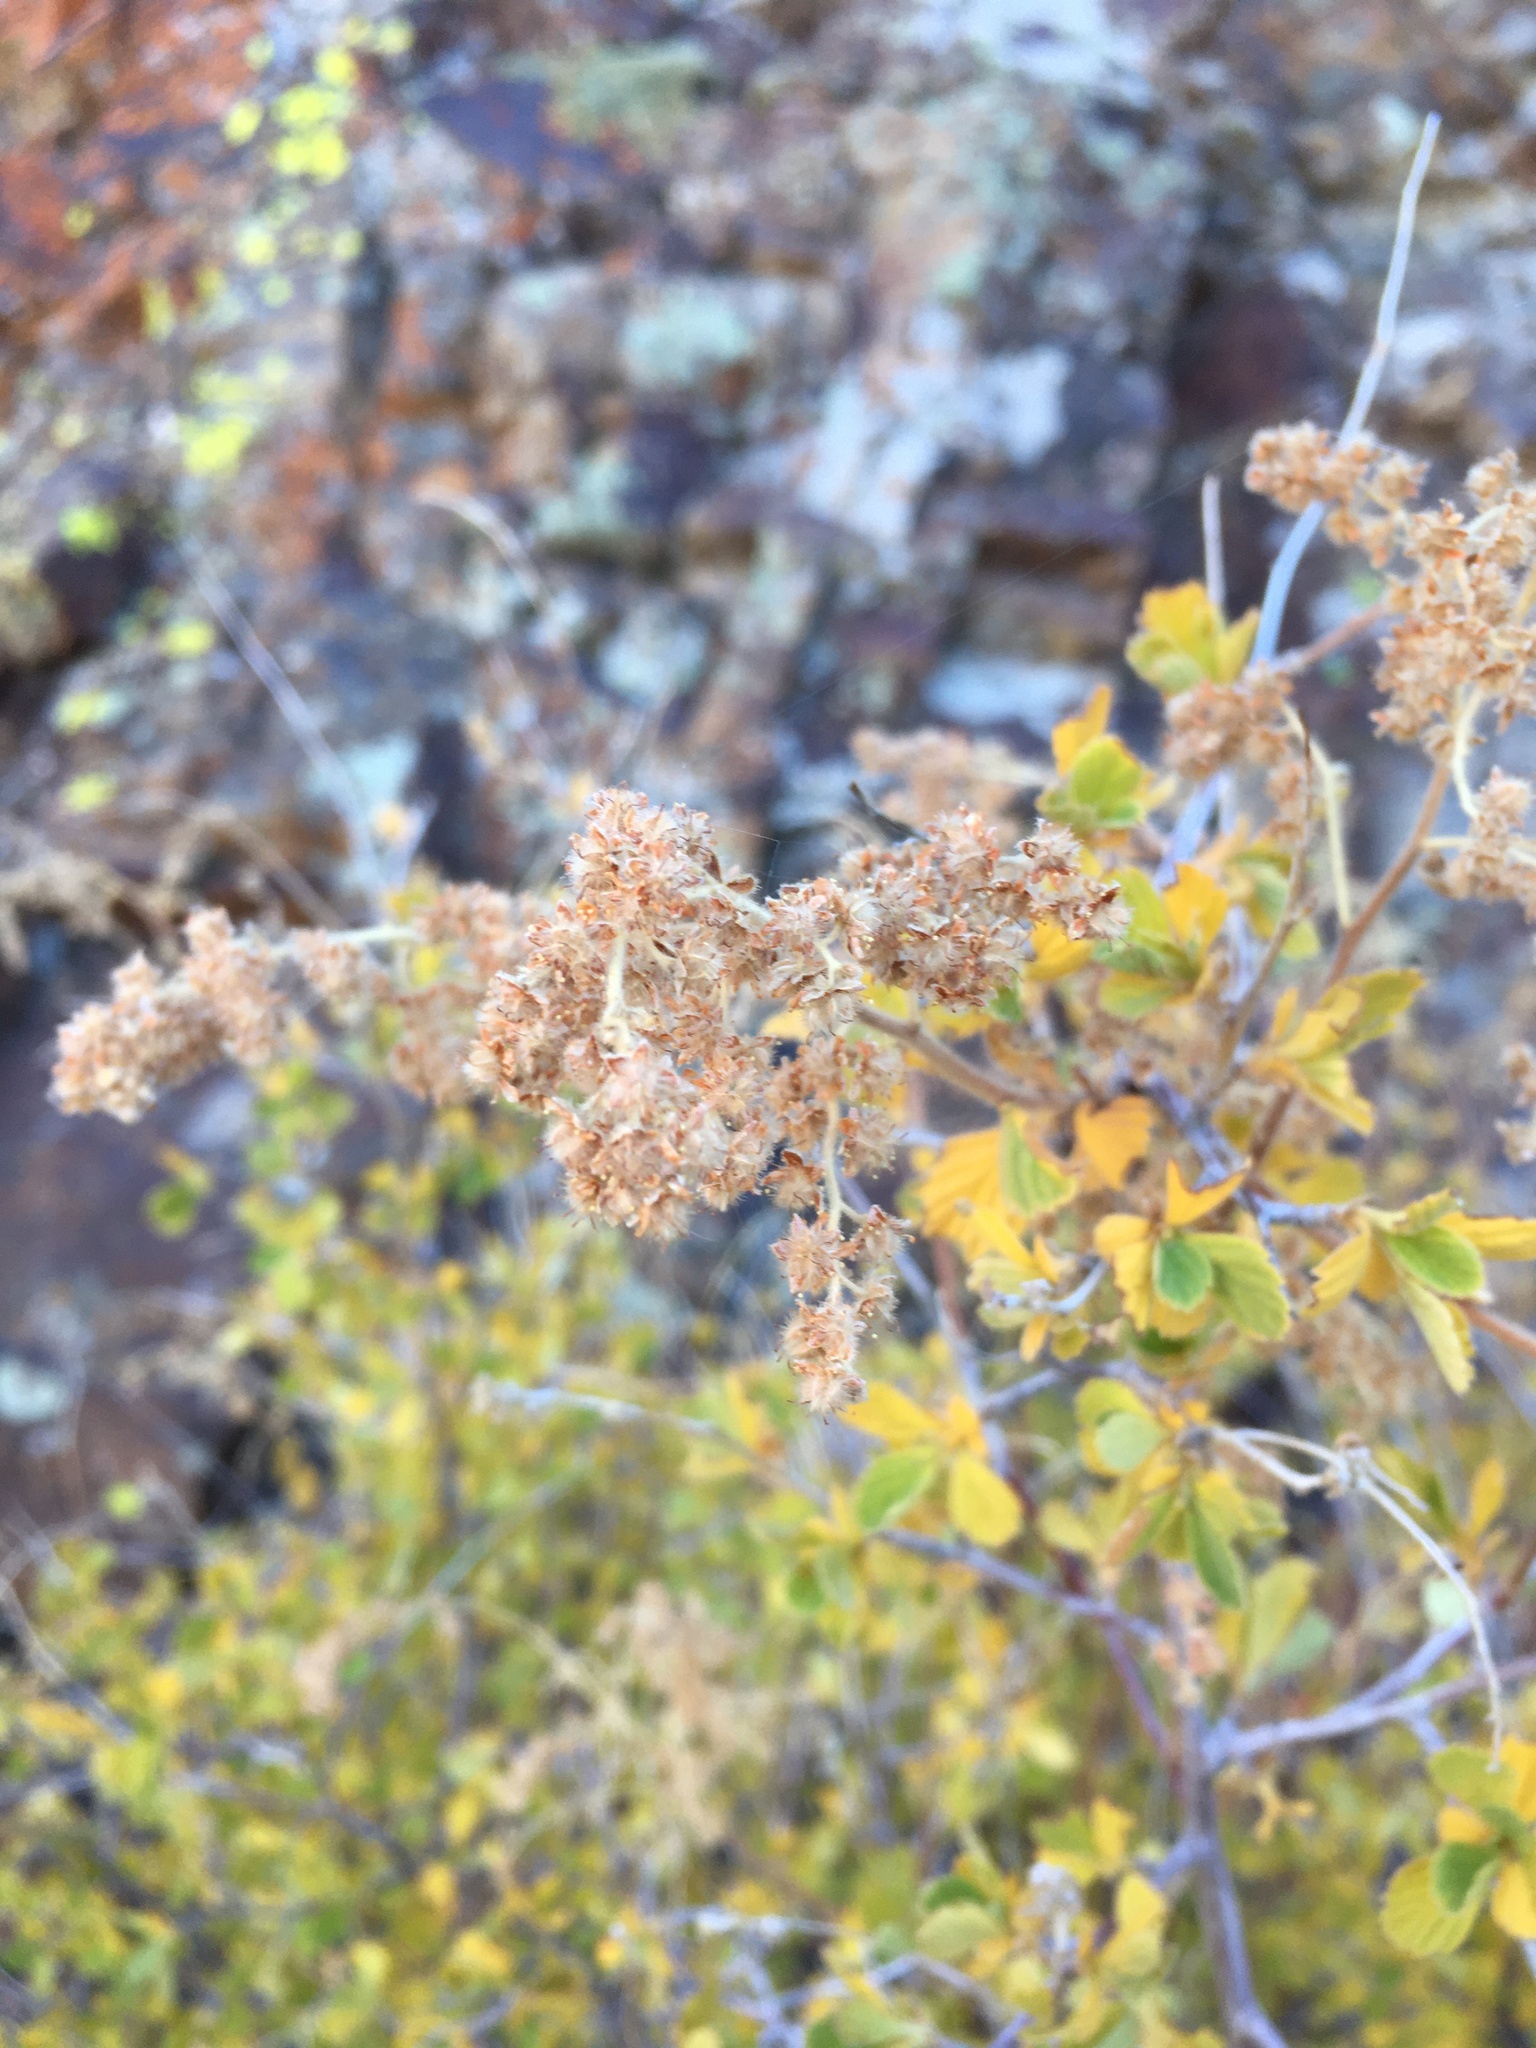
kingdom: Plantae
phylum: Tracheophyta
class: Magnoliopsida
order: Rosales
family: Rosaceae
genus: Holodiscus
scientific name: Holodiscus discolor
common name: Oceanspray
